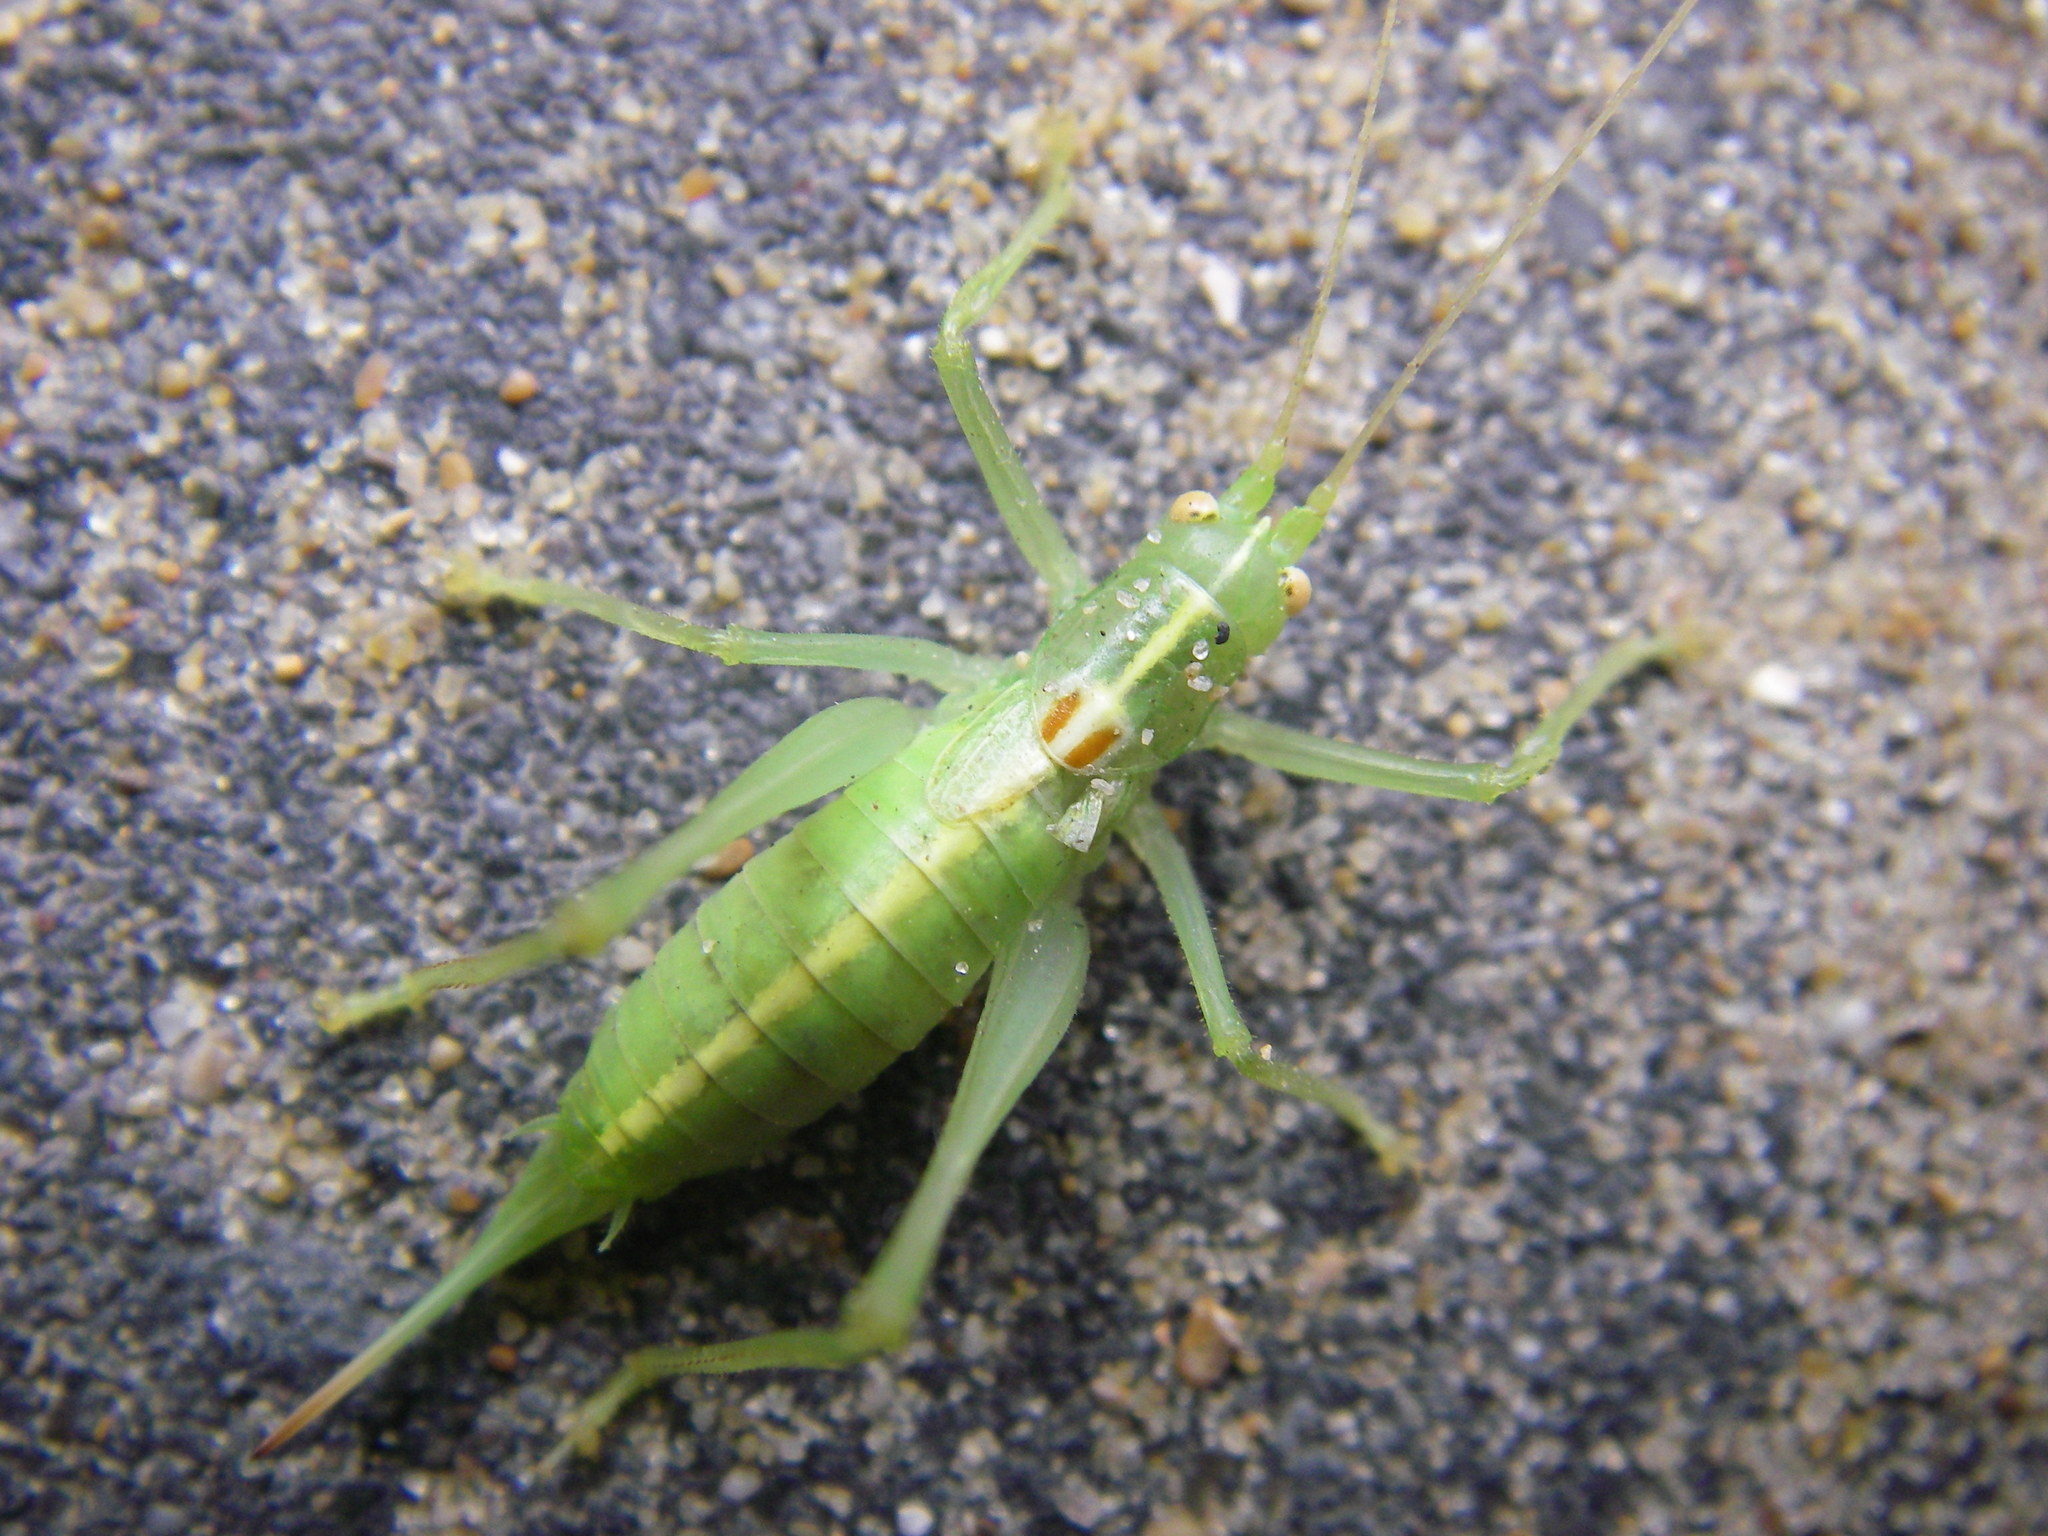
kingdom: Animalia
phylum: Arthropoda
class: Insecta
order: Orthoptera
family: Tettigoniidae
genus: Meconema
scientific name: Meconema meridionale
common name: Southern oak bush-cricket
